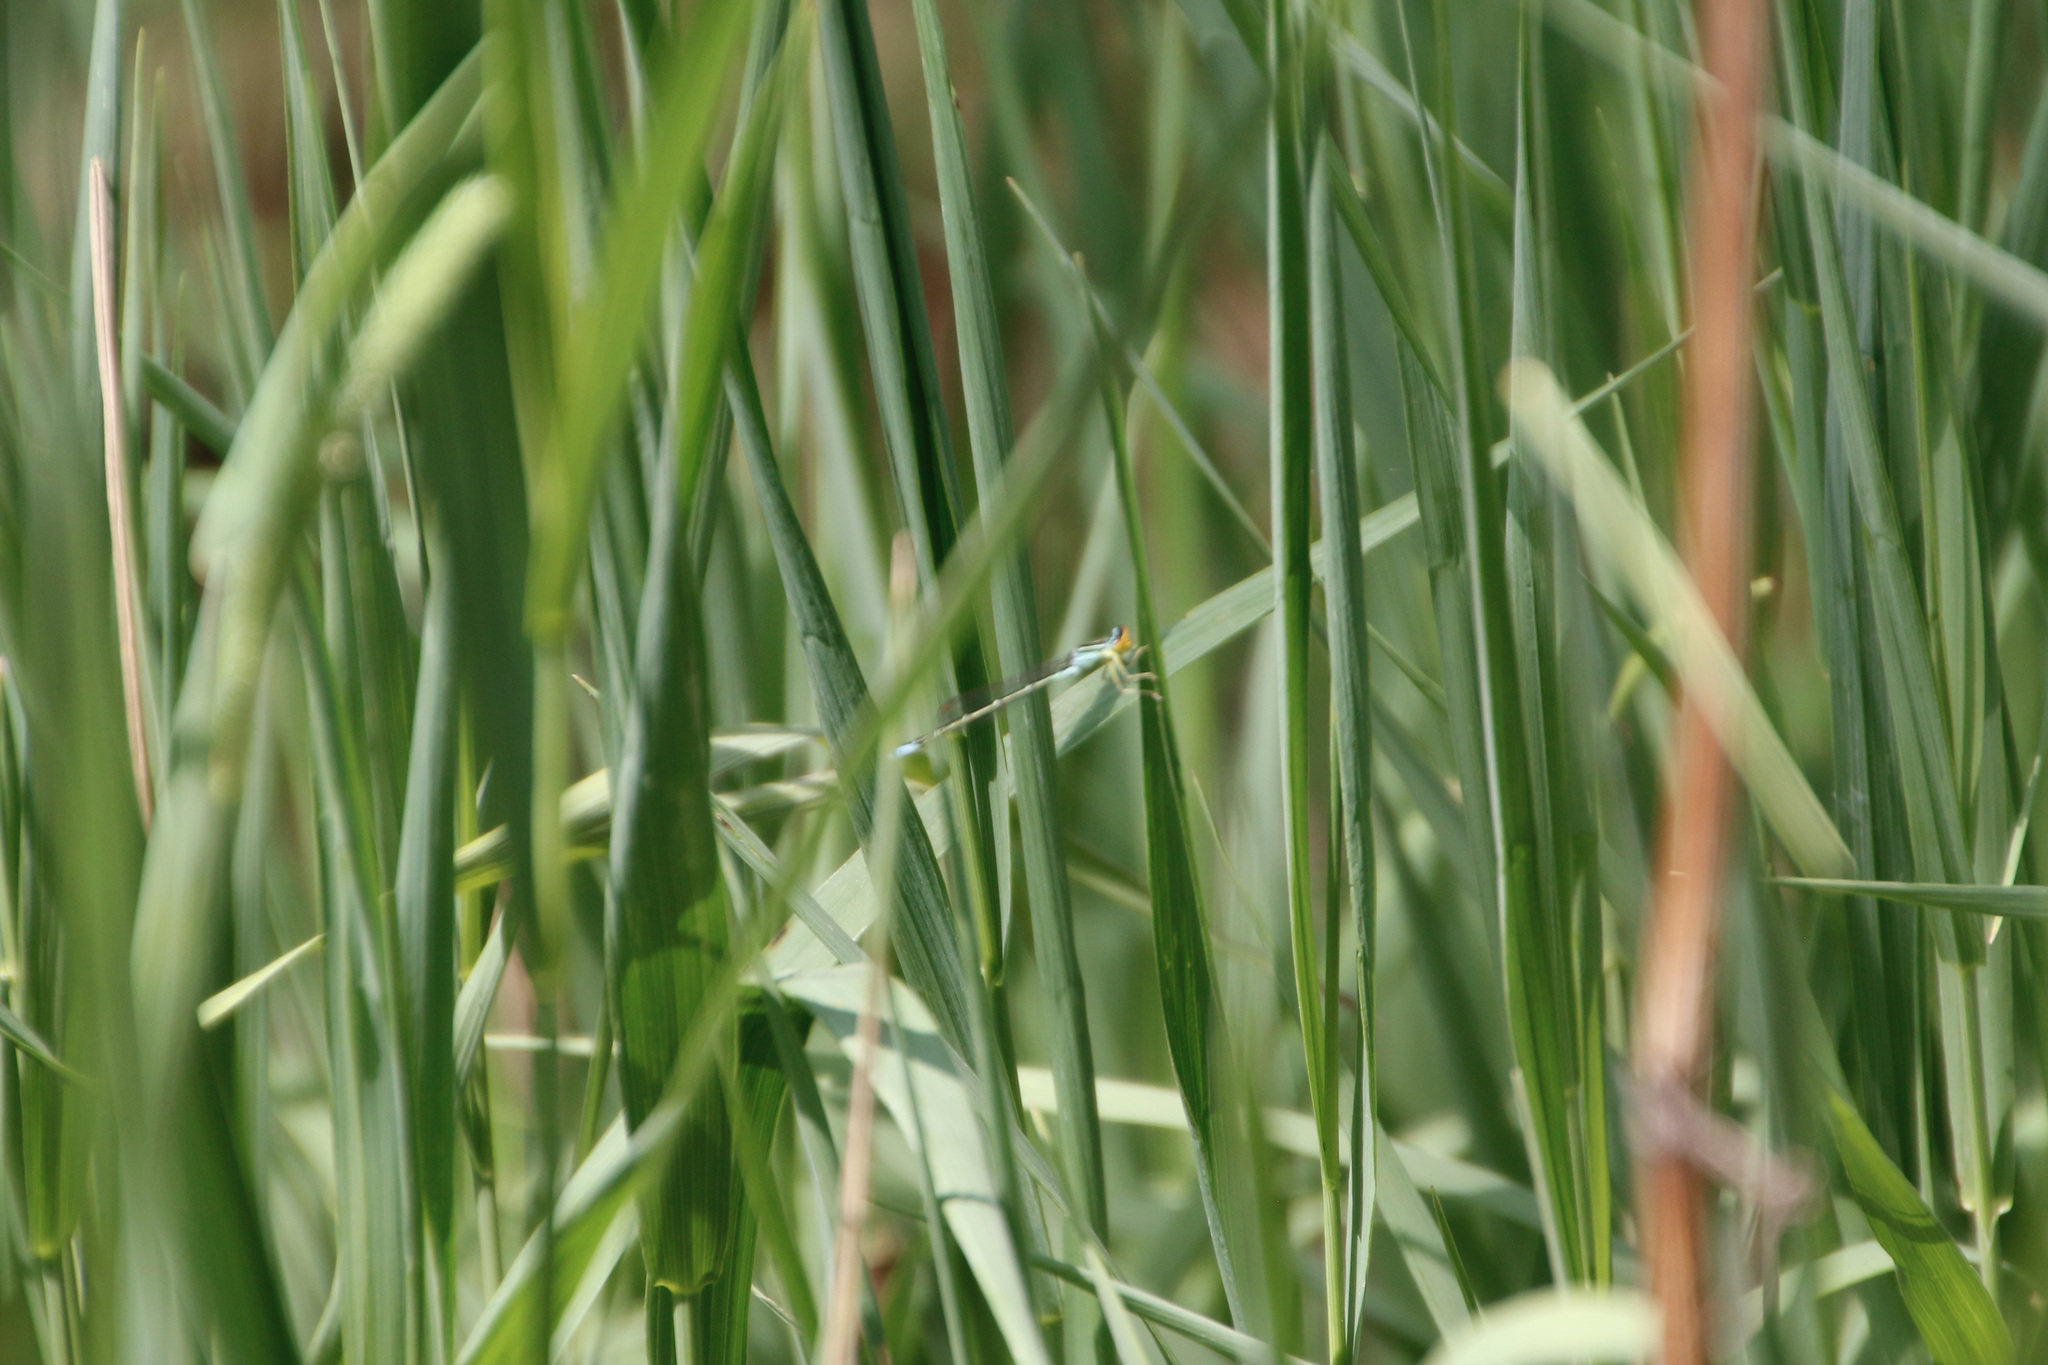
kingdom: Animalia
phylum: Arthropoda
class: Insecta
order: Odonata
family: Coenagrionidae
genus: Enallagma
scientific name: Enallagma antennatum
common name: Rainbow bluet
